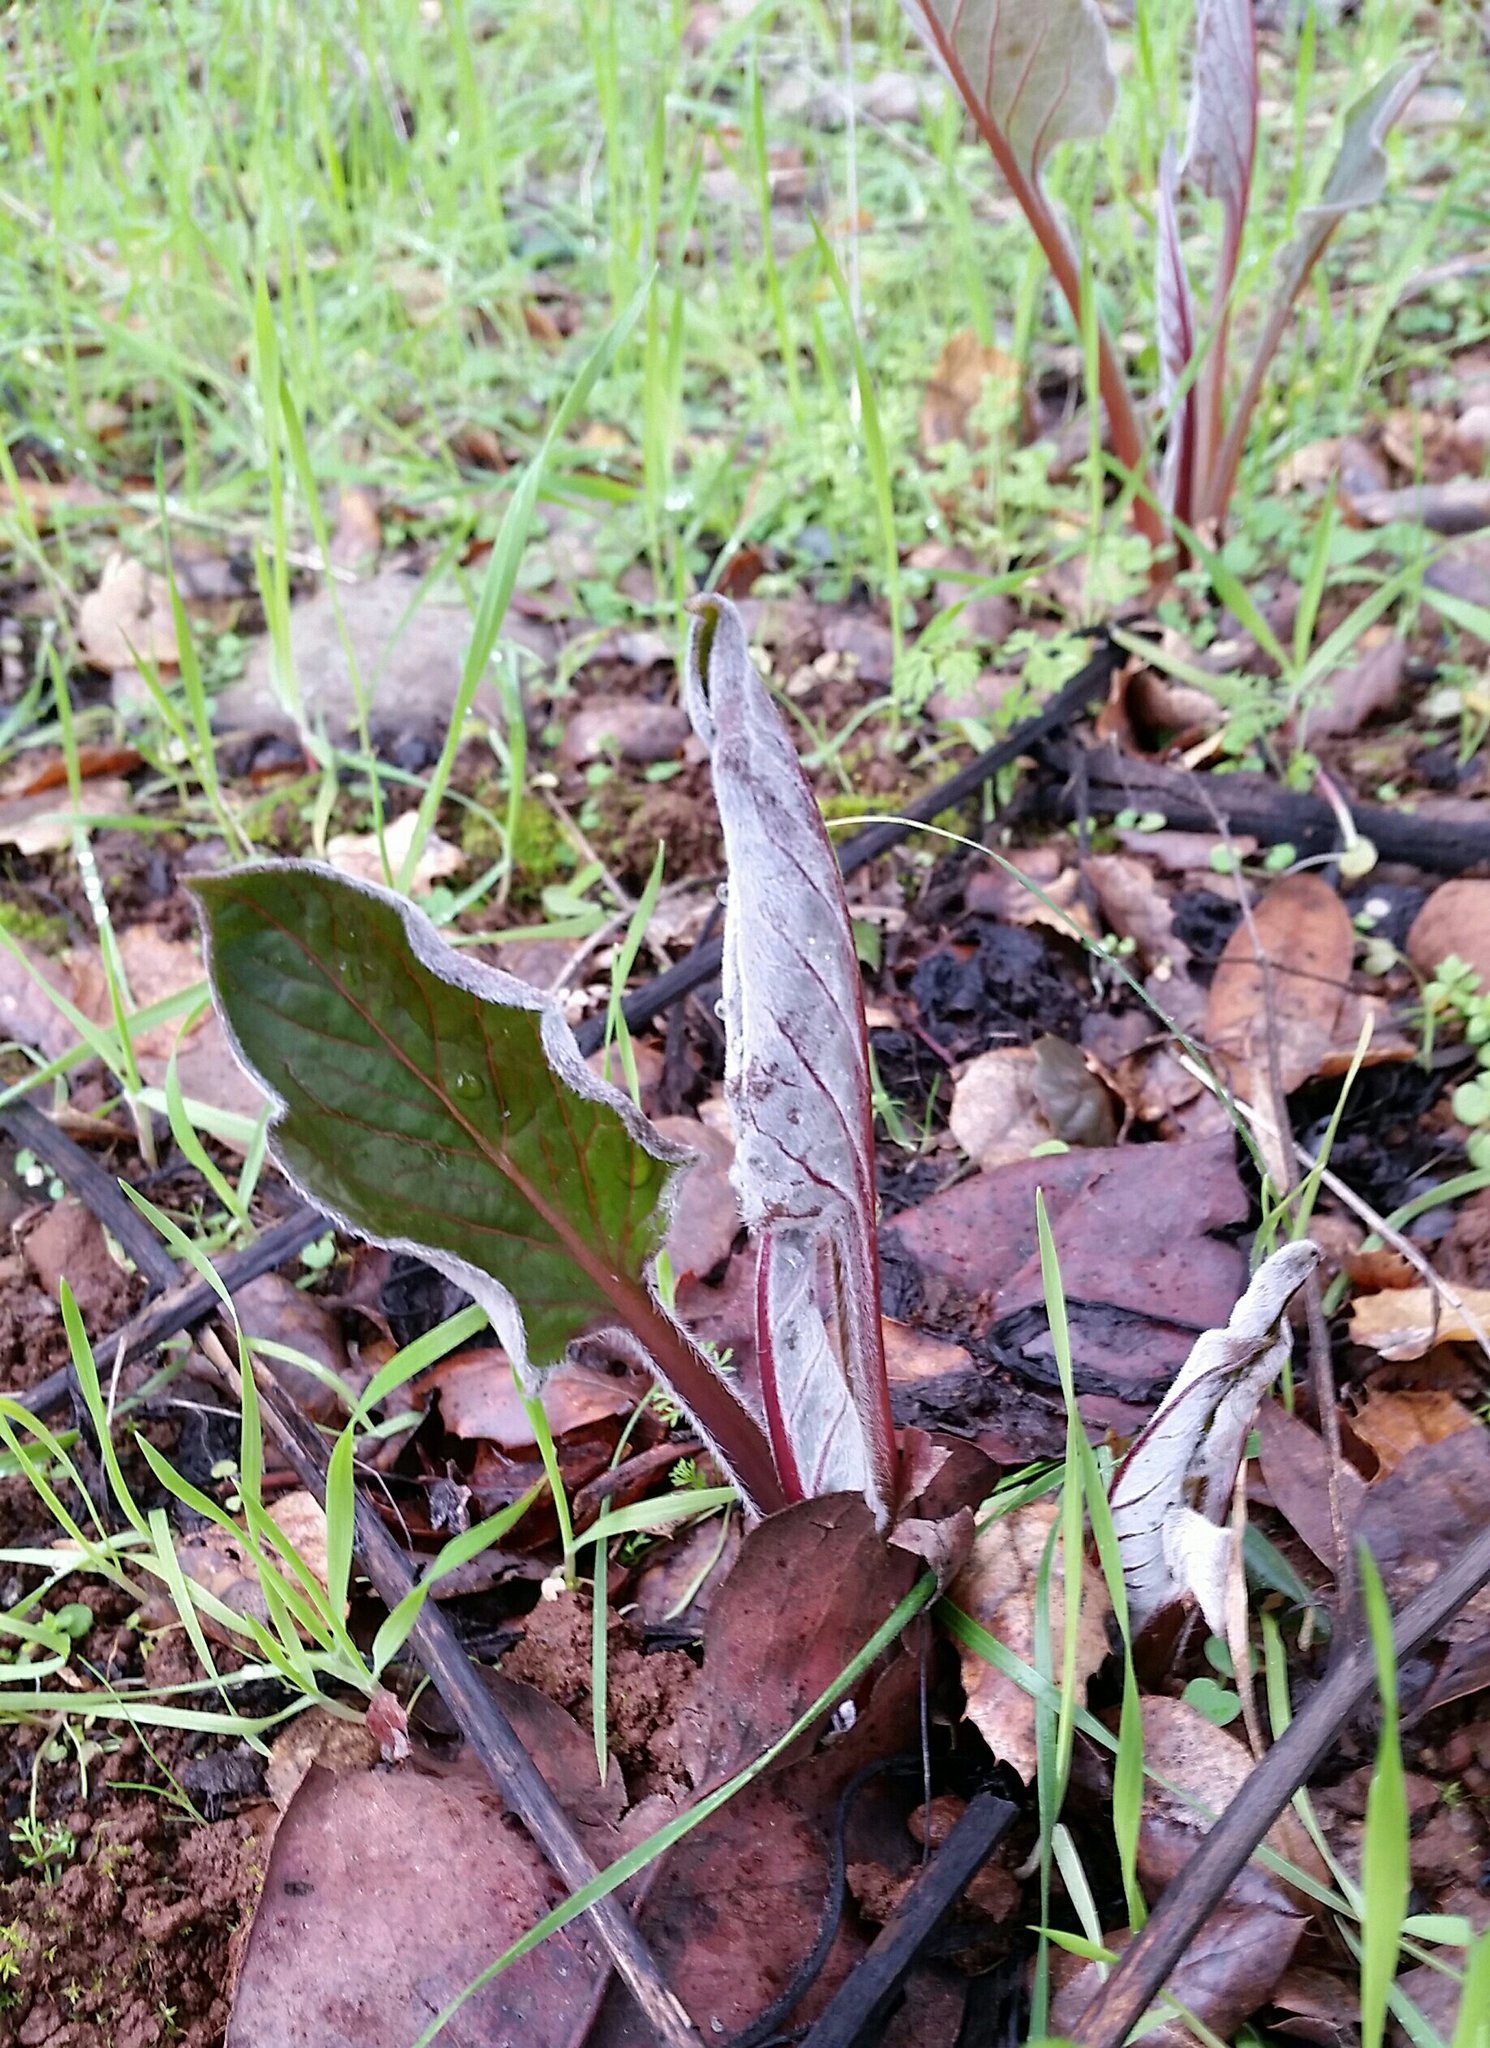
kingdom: Plantae
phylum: Tracheophyta
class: Magnoliopsida
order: Boraginales
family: Boraginaceae
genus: Adelinia
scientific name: Adelinia grande
